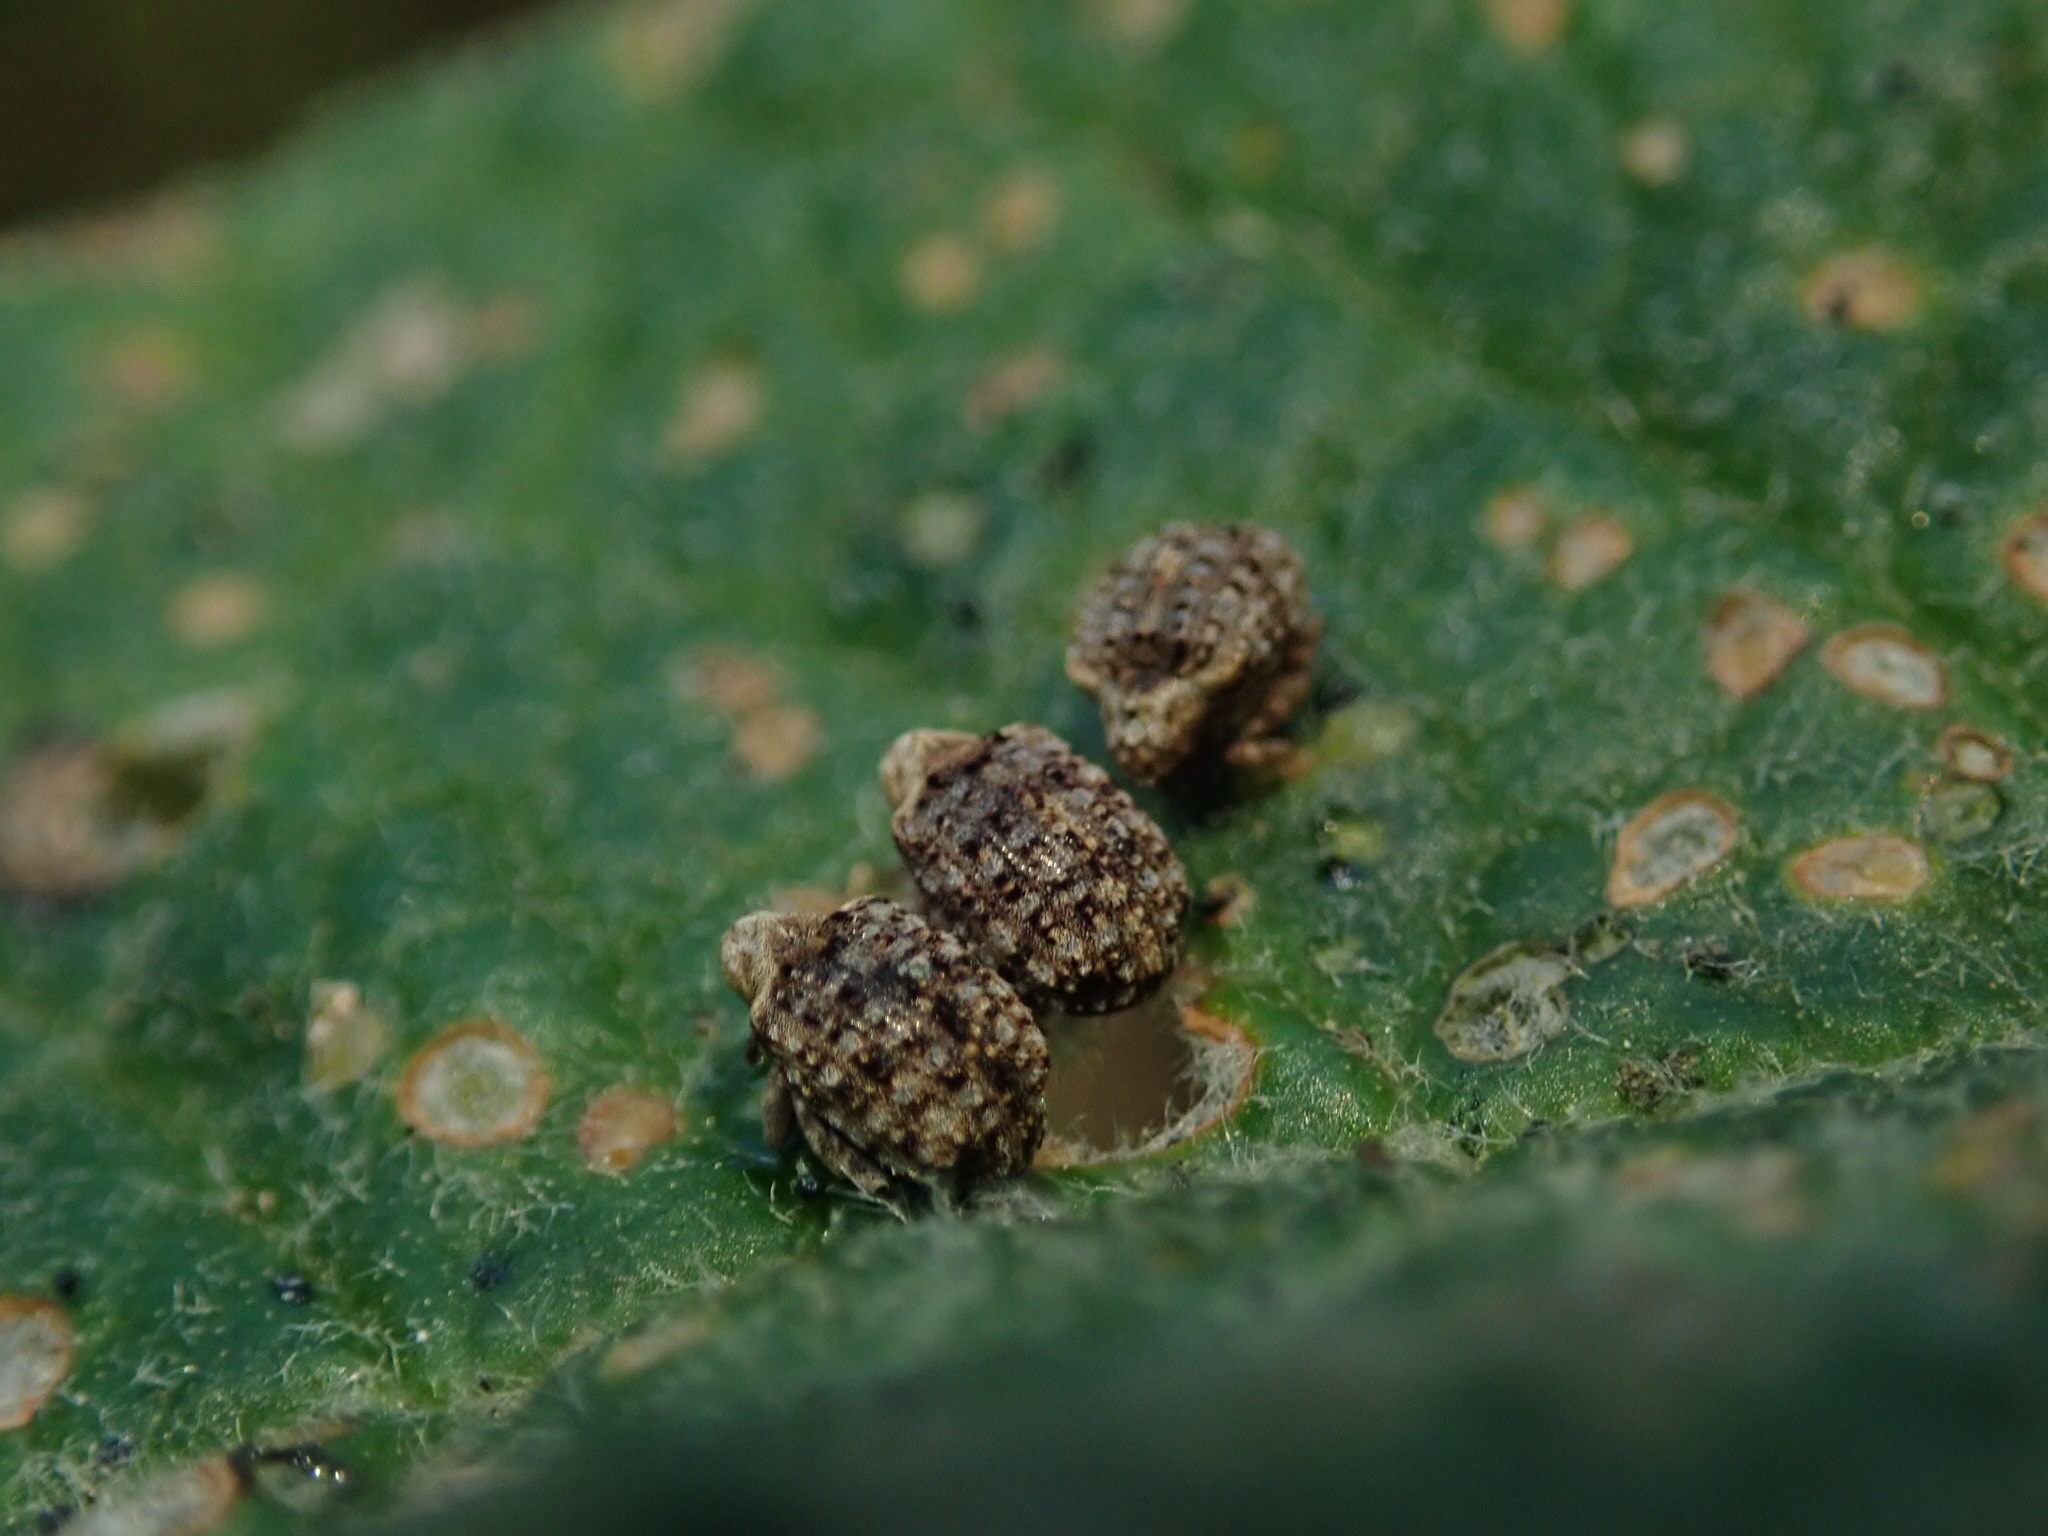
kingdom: Animalia
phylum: Arthropoda
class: Insecta
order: Coleoptera
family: Curculionidae
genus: Cleopus
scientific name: Cleopus japonicus
